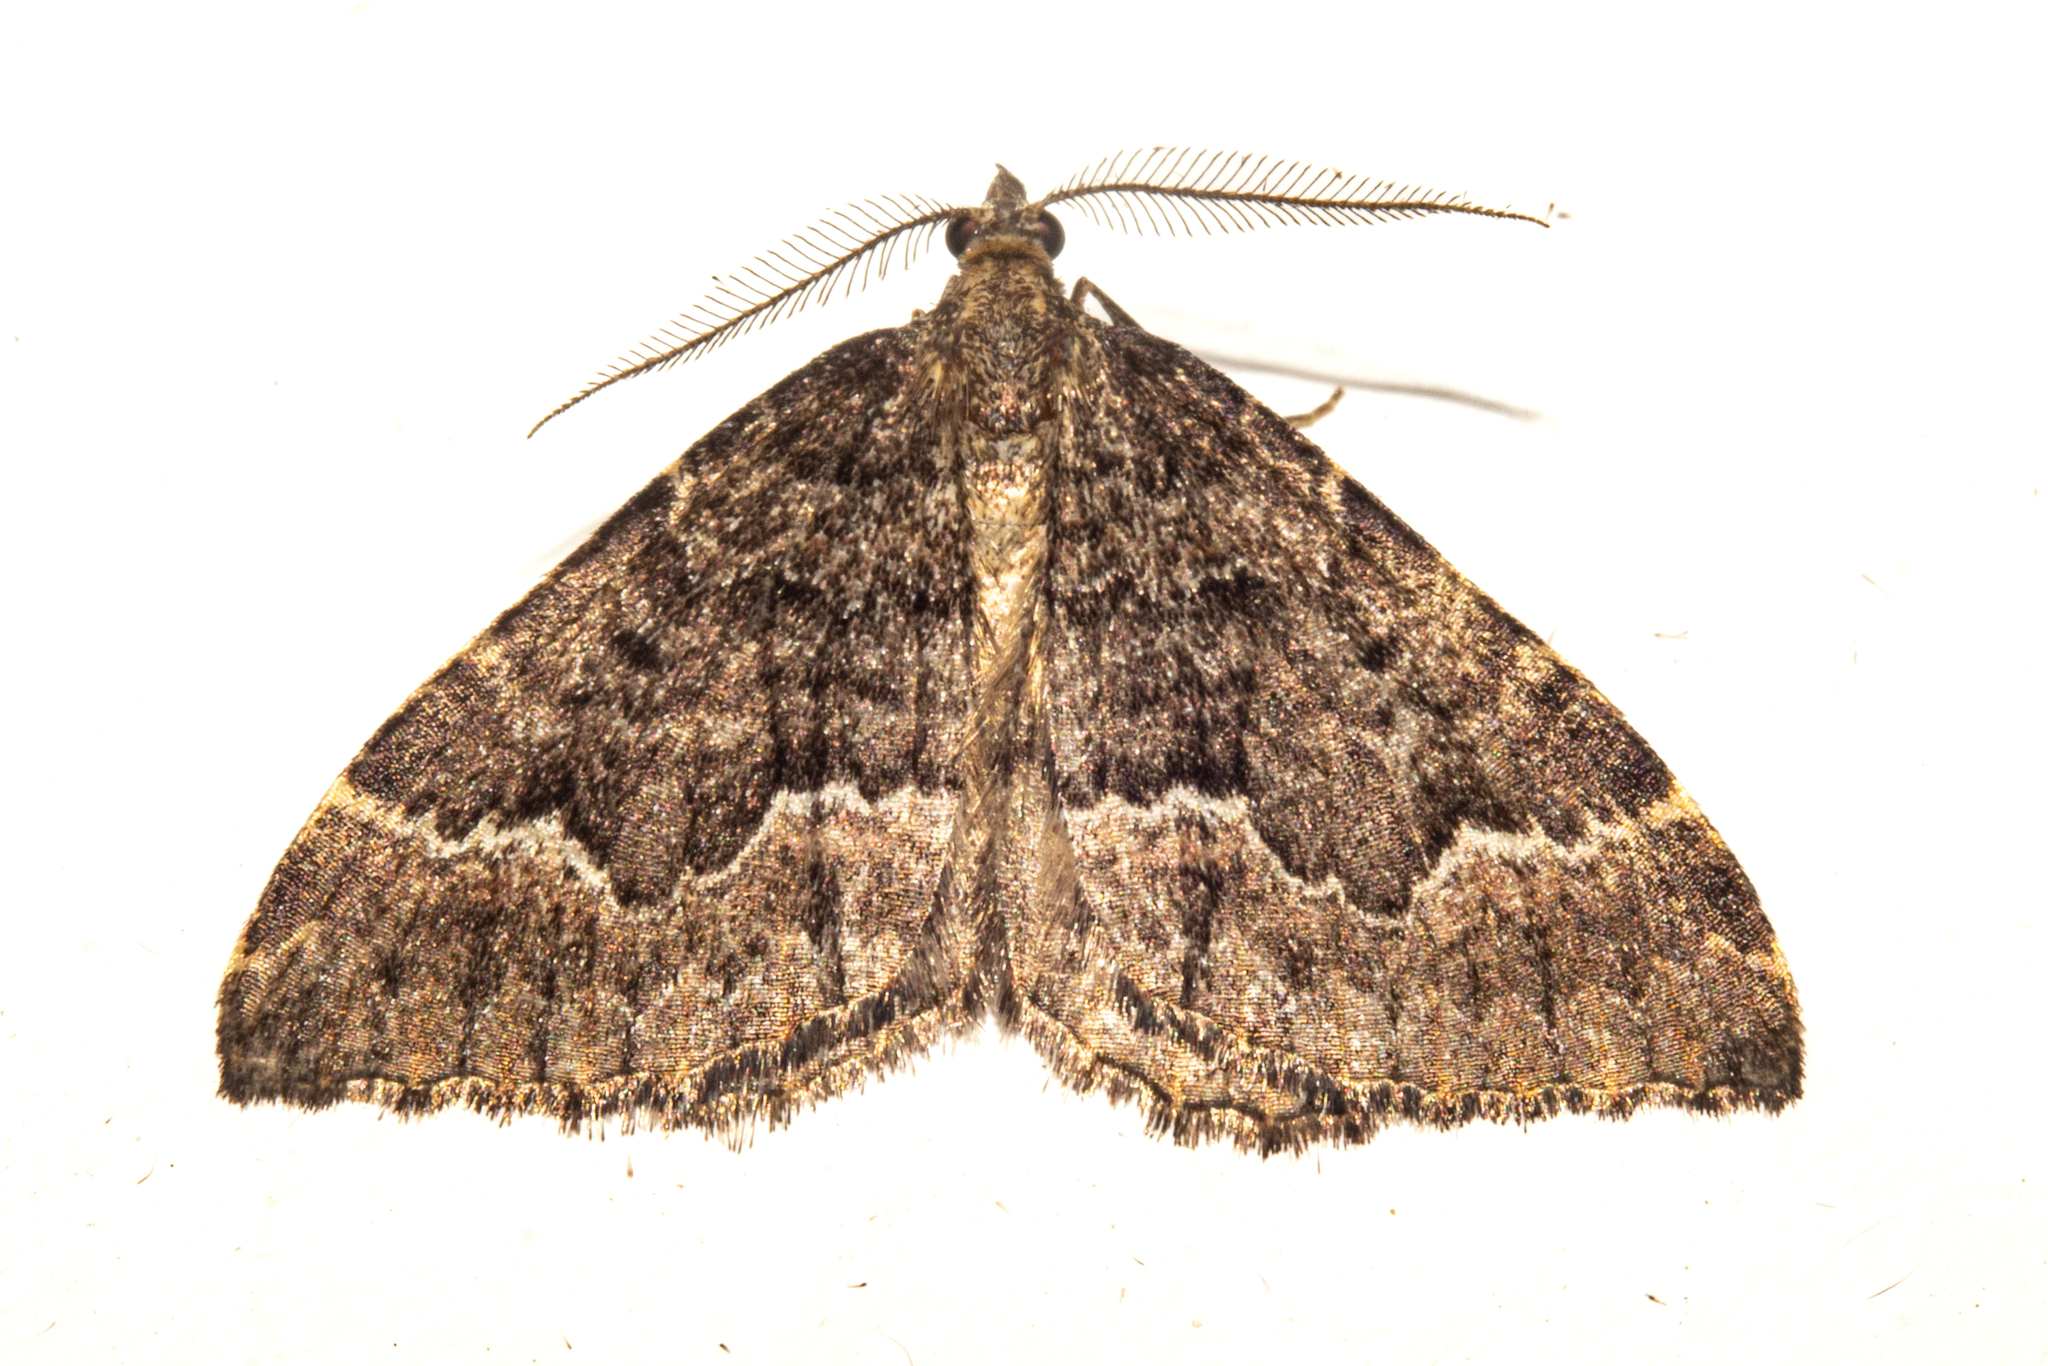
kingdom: Animalia
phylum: Arthropoda
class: Insecta
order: Lepidoptera
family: Geometridae
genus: Asaphodes
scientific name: Asaphodes ida
